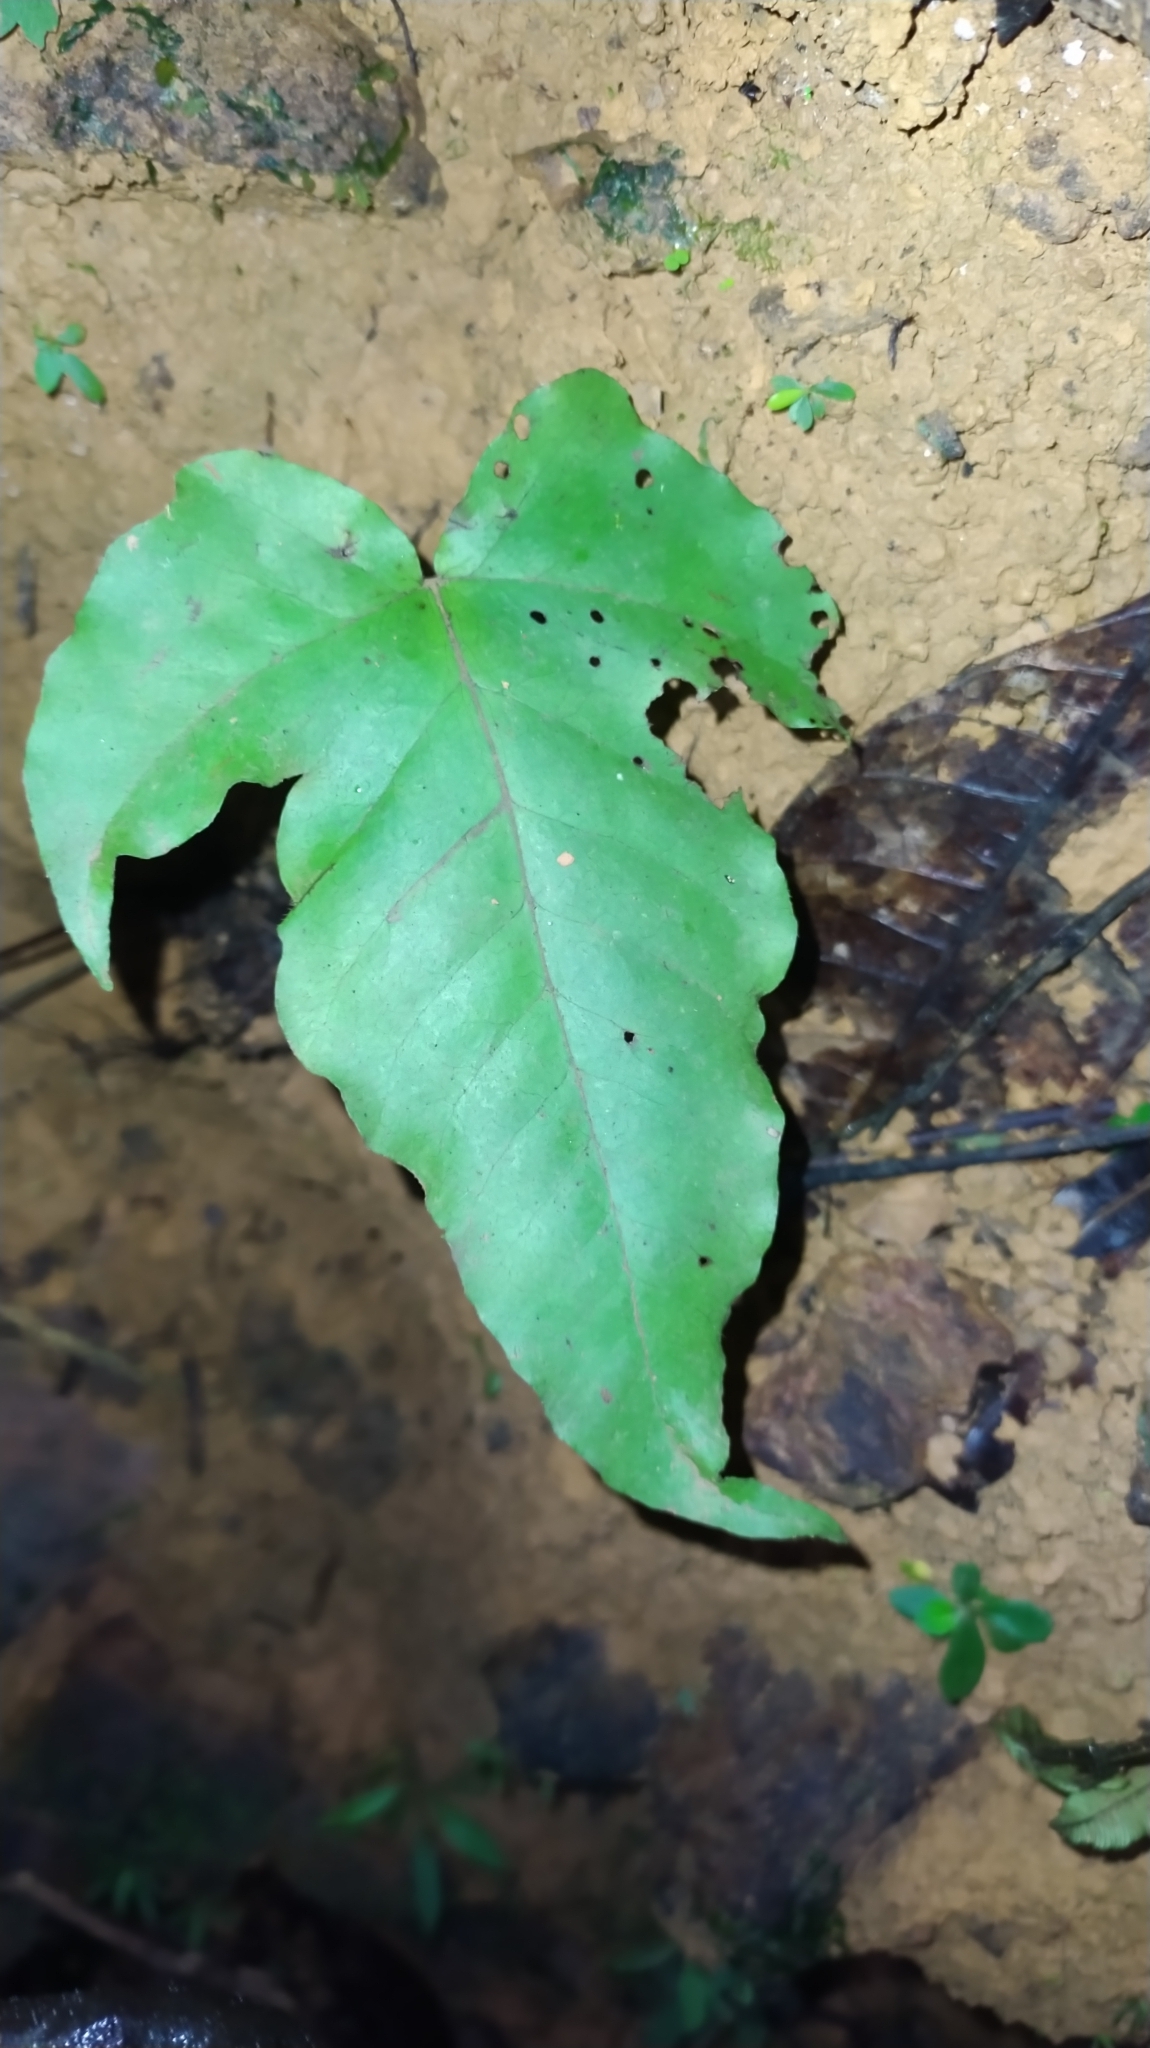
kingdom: Plantae
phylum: Tracheophyta
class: Polypodiopsida
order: Polypodiales
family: Tectariaceae
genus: Tectaria
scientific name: Tectaria
